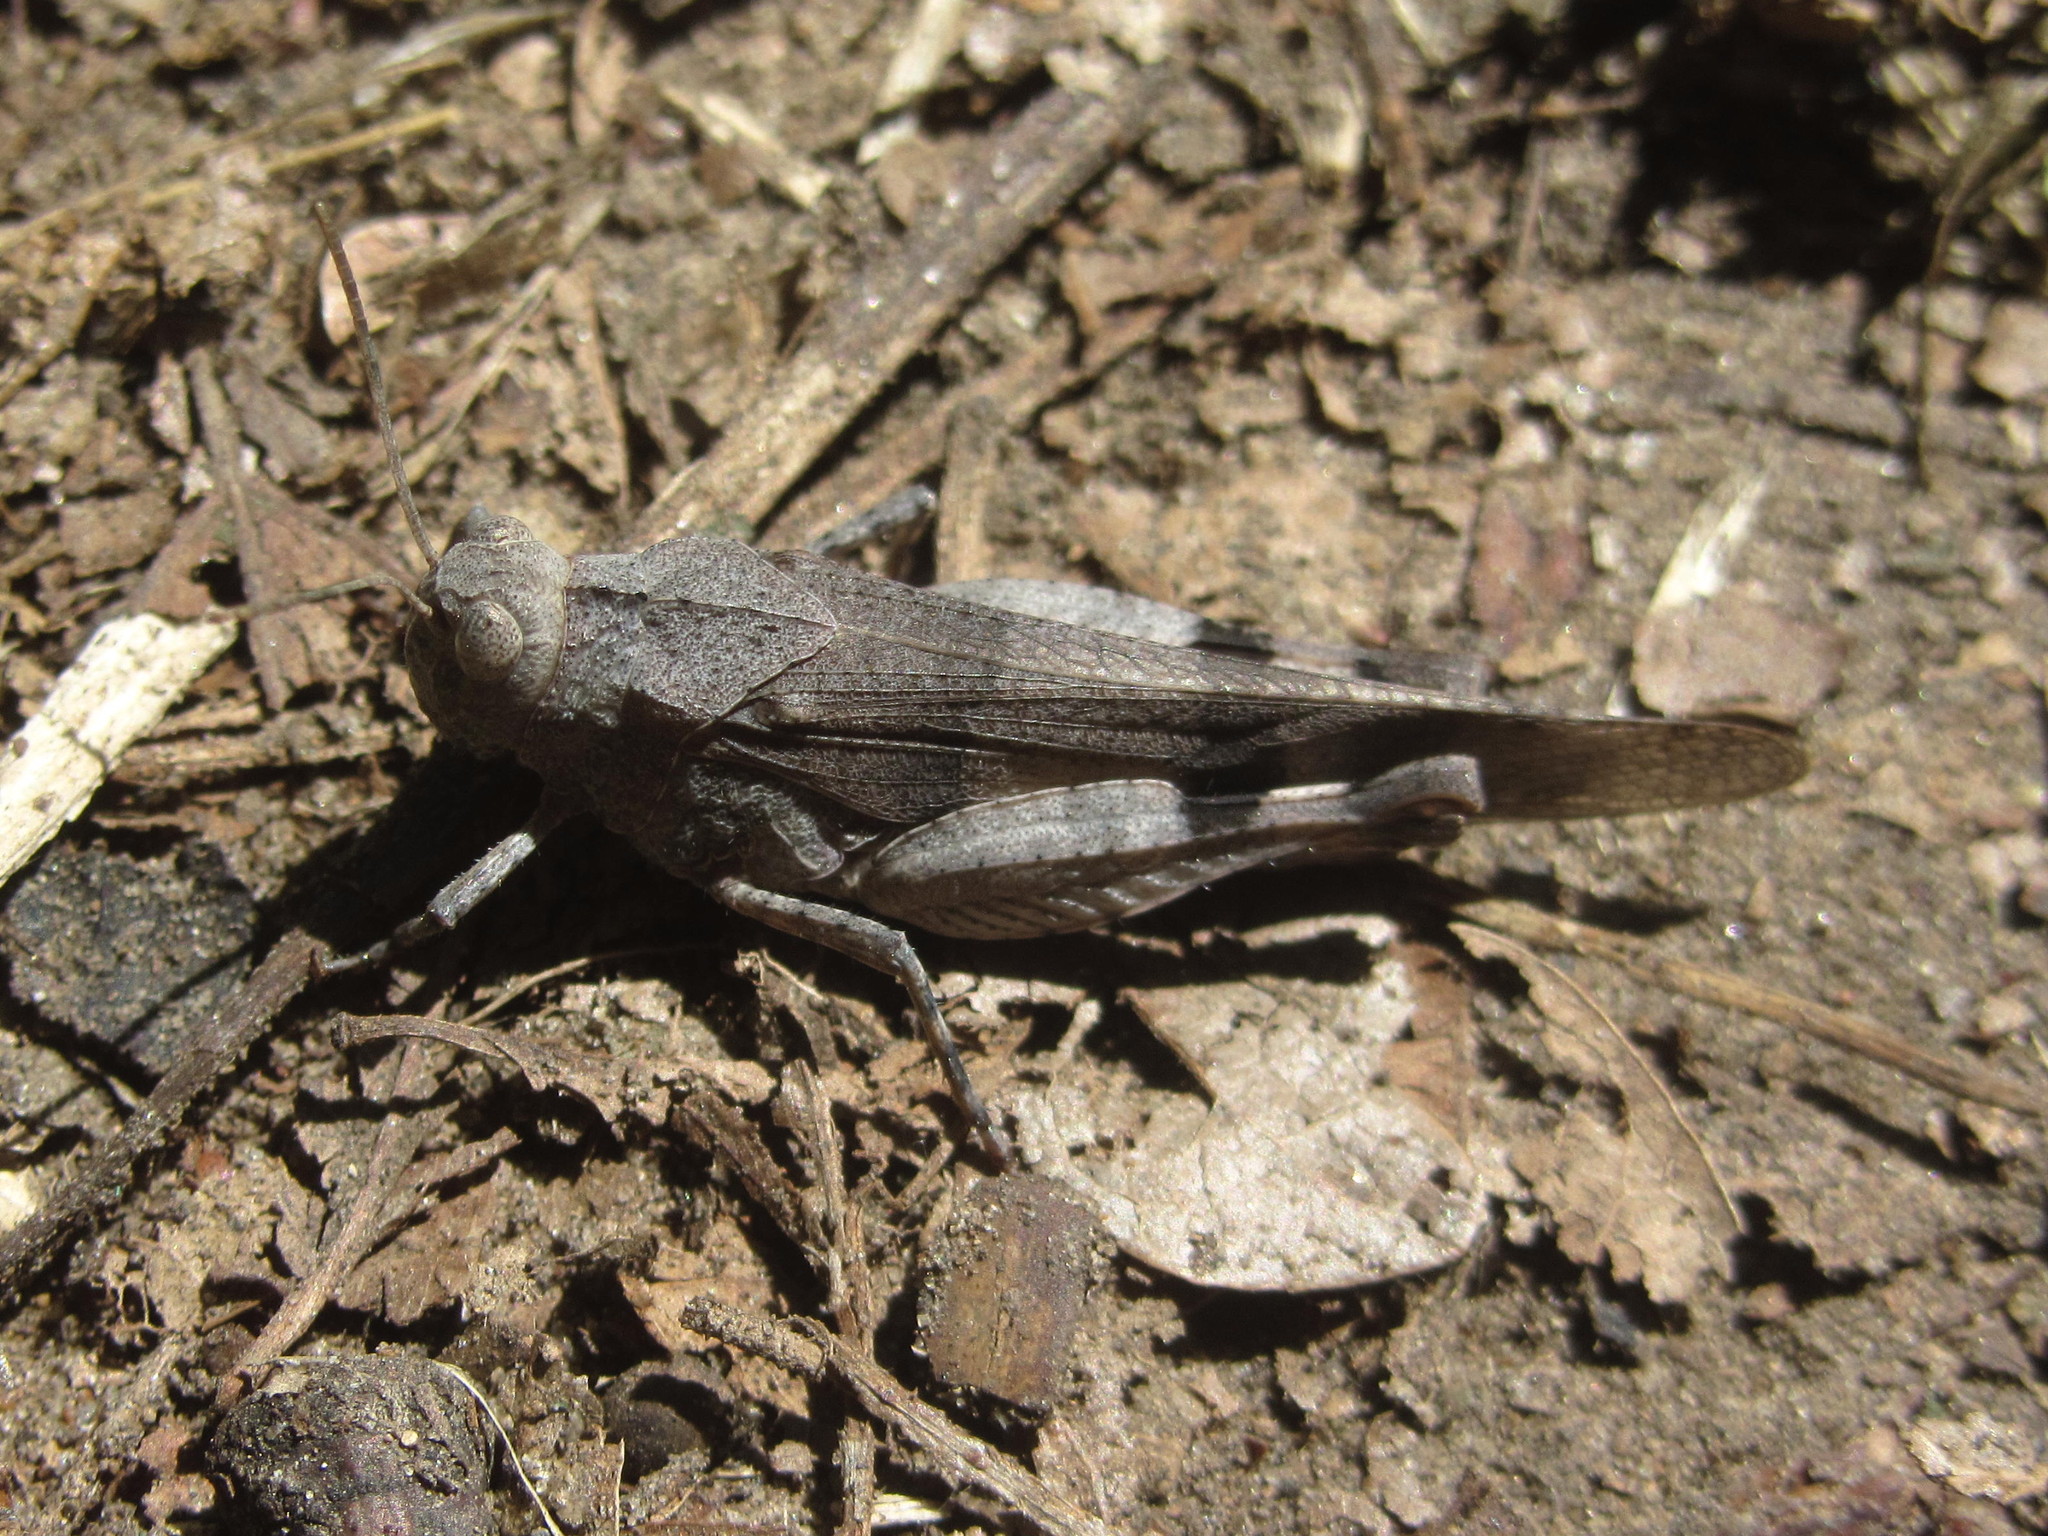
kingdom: Animalia
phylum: Arthropoda
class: Insecta
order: Orthoptera
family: Acrididae
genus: Oedipoda
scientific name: Oedipoda caerulescens
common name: Blue-winged grasshopper
